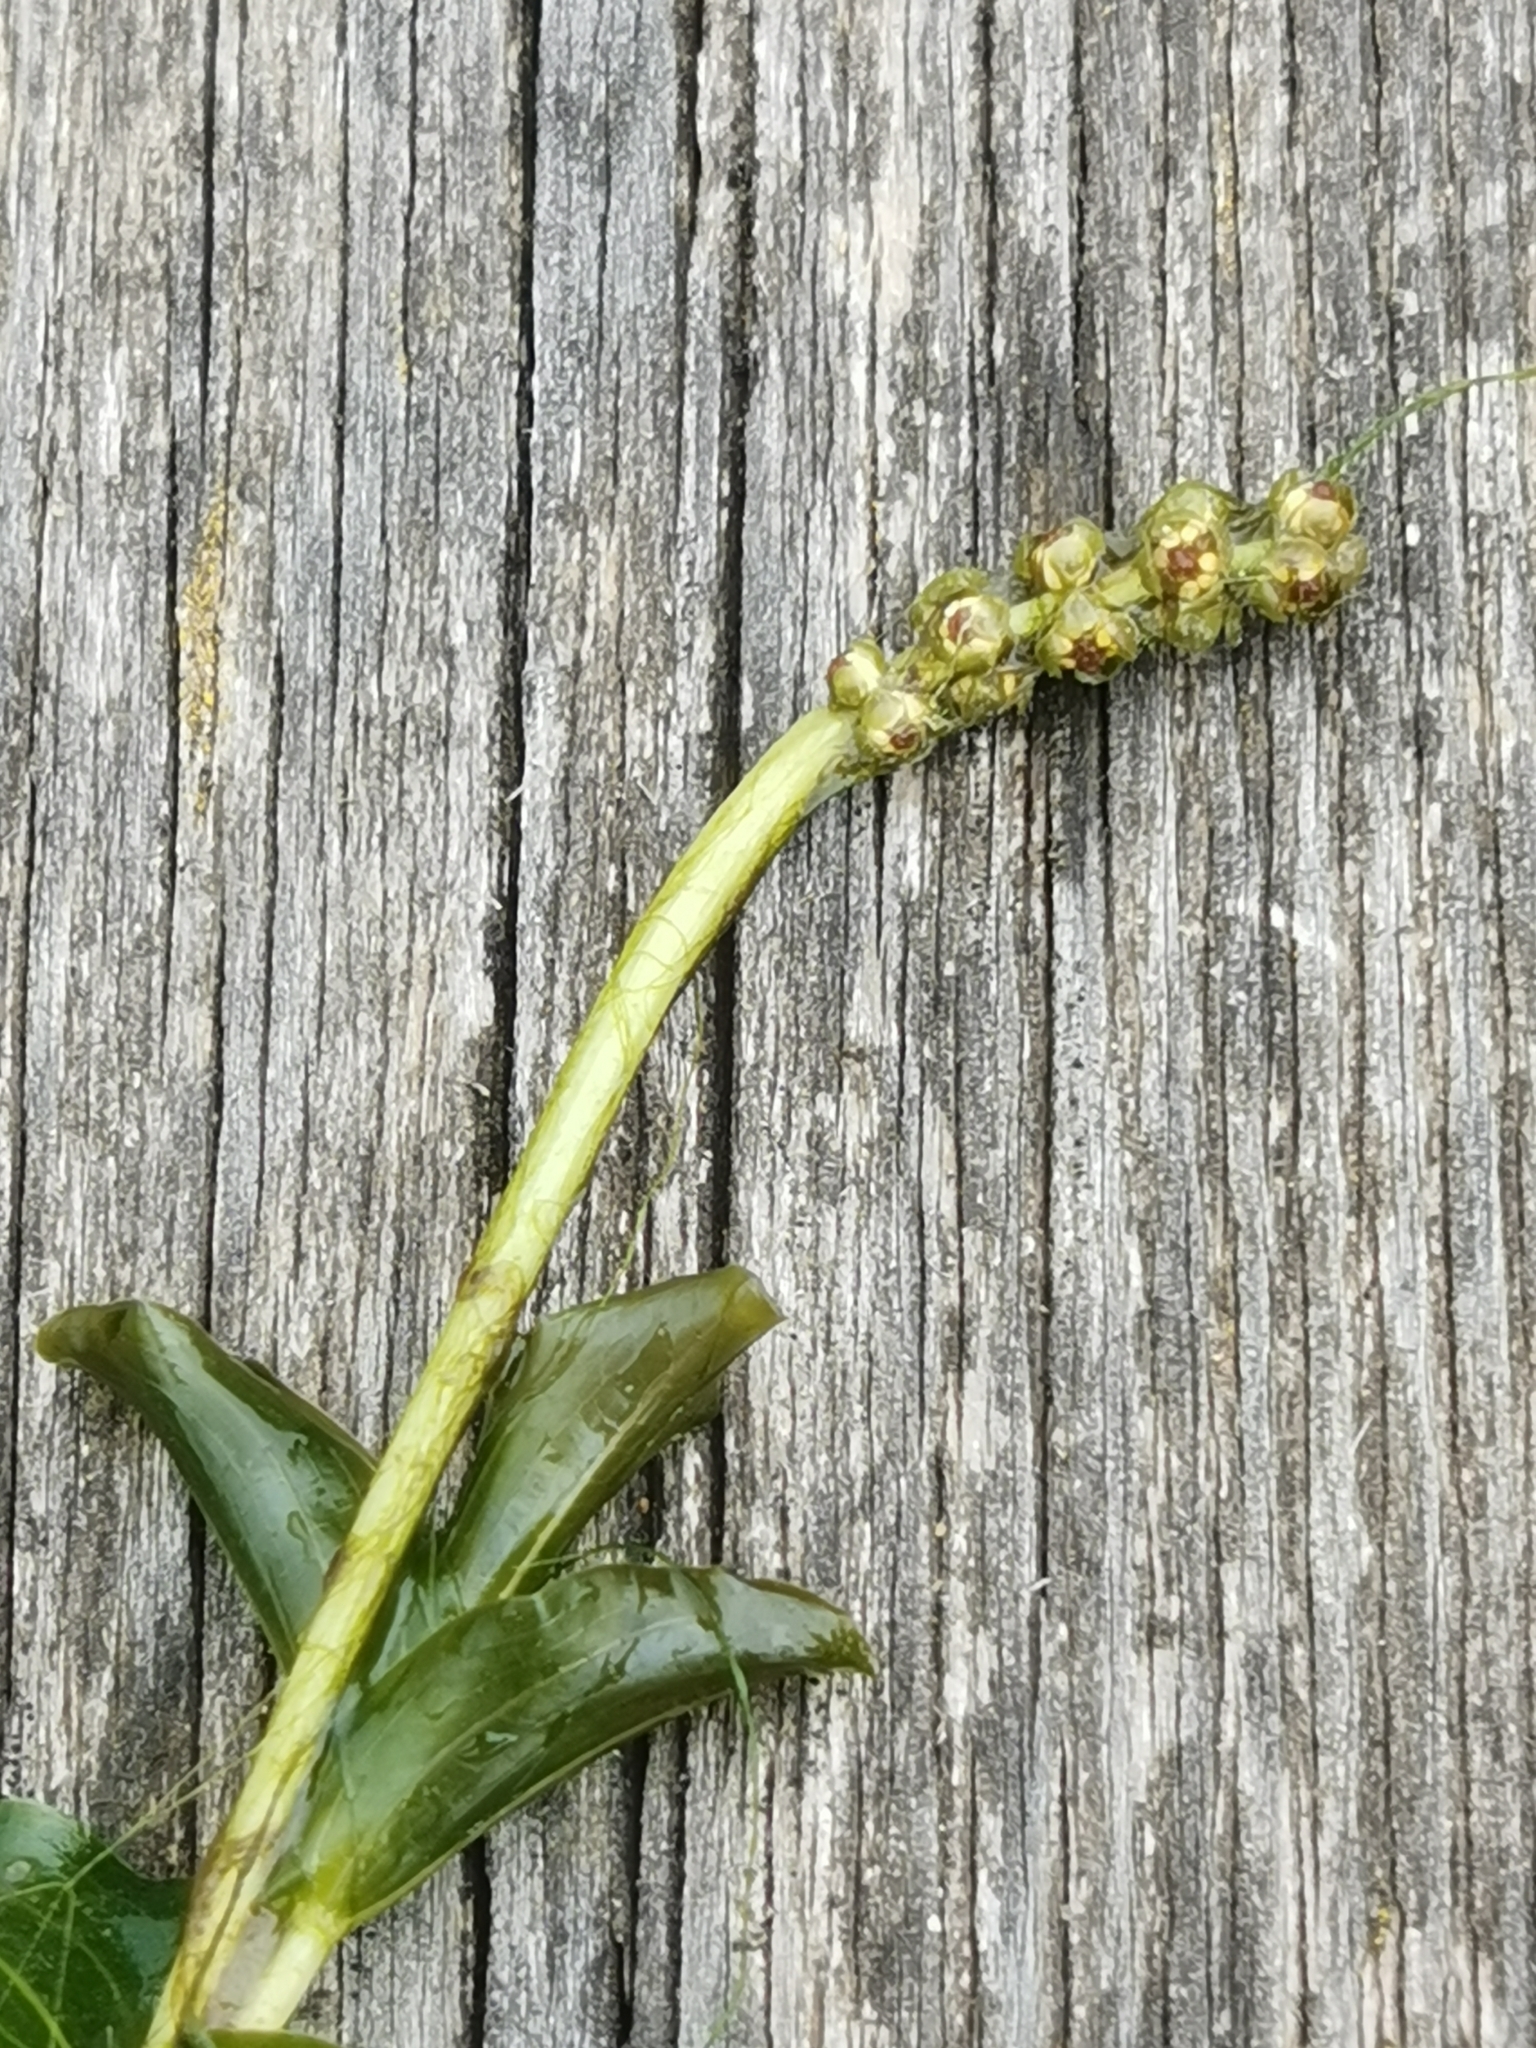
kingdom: Plantae
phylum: Tracheophyta
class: Liliopsida
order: Alismatales
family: Potamogetonaceae
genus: Potamogeton
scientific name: Potamogeton perfoliatus
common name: Perfoliate pondweed
